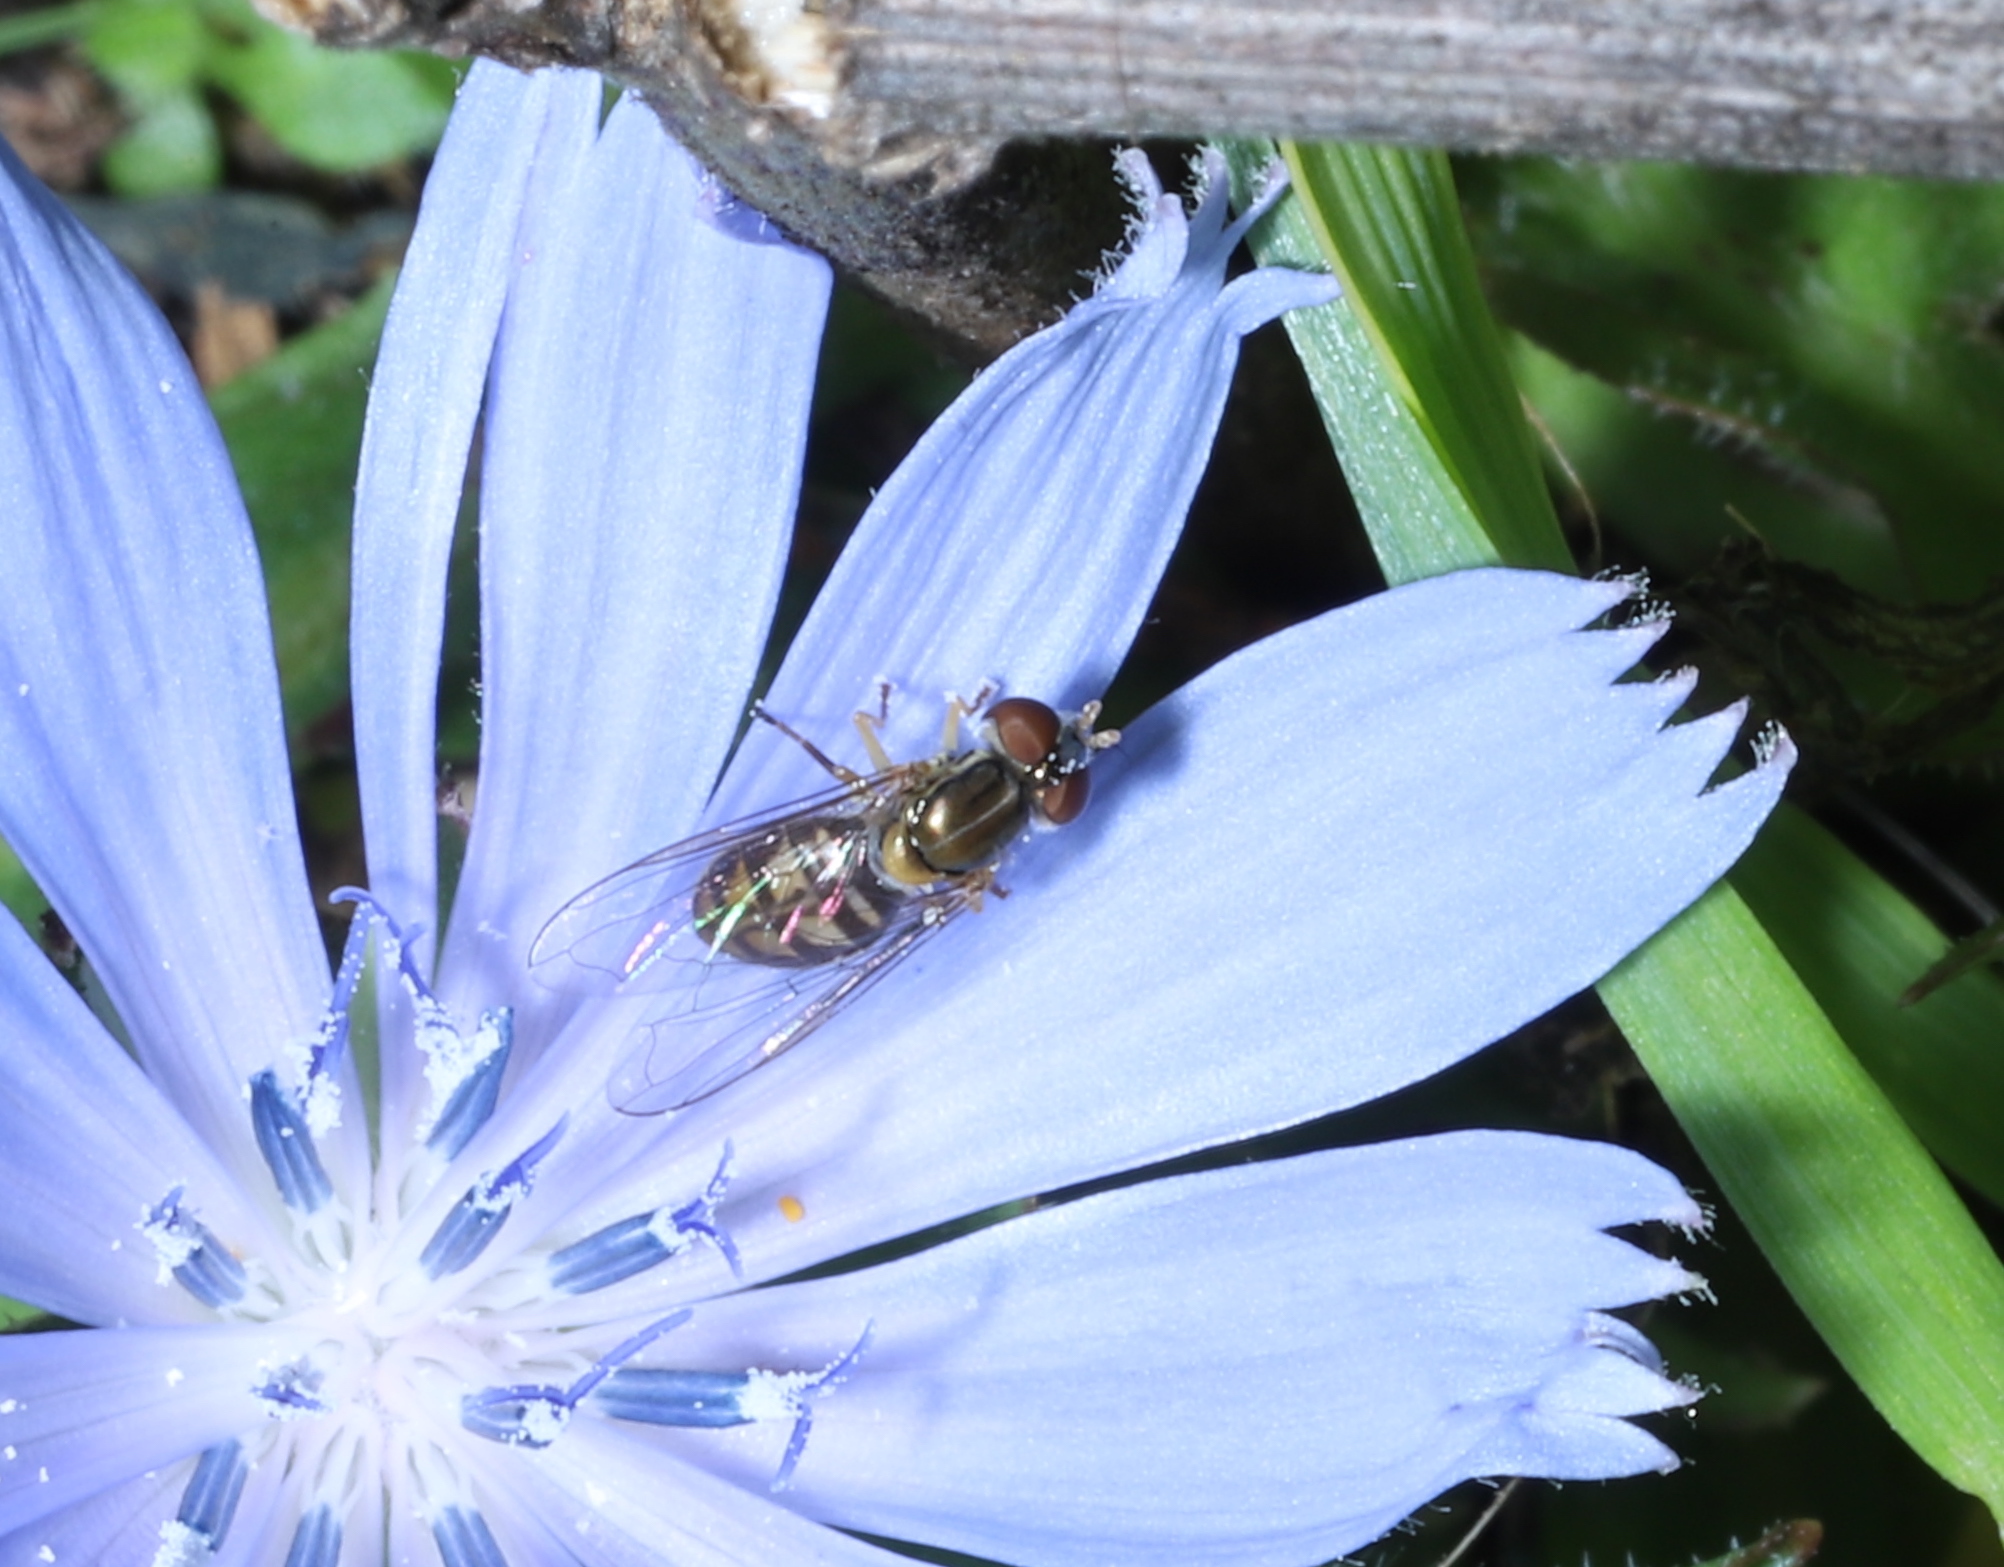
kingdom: Animalia
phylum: Arthropoda
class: Insecta
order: Diptera
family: Syrphidae
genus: Toxomerus
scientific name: Toxomerus marginatus
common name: Syrphid fly
